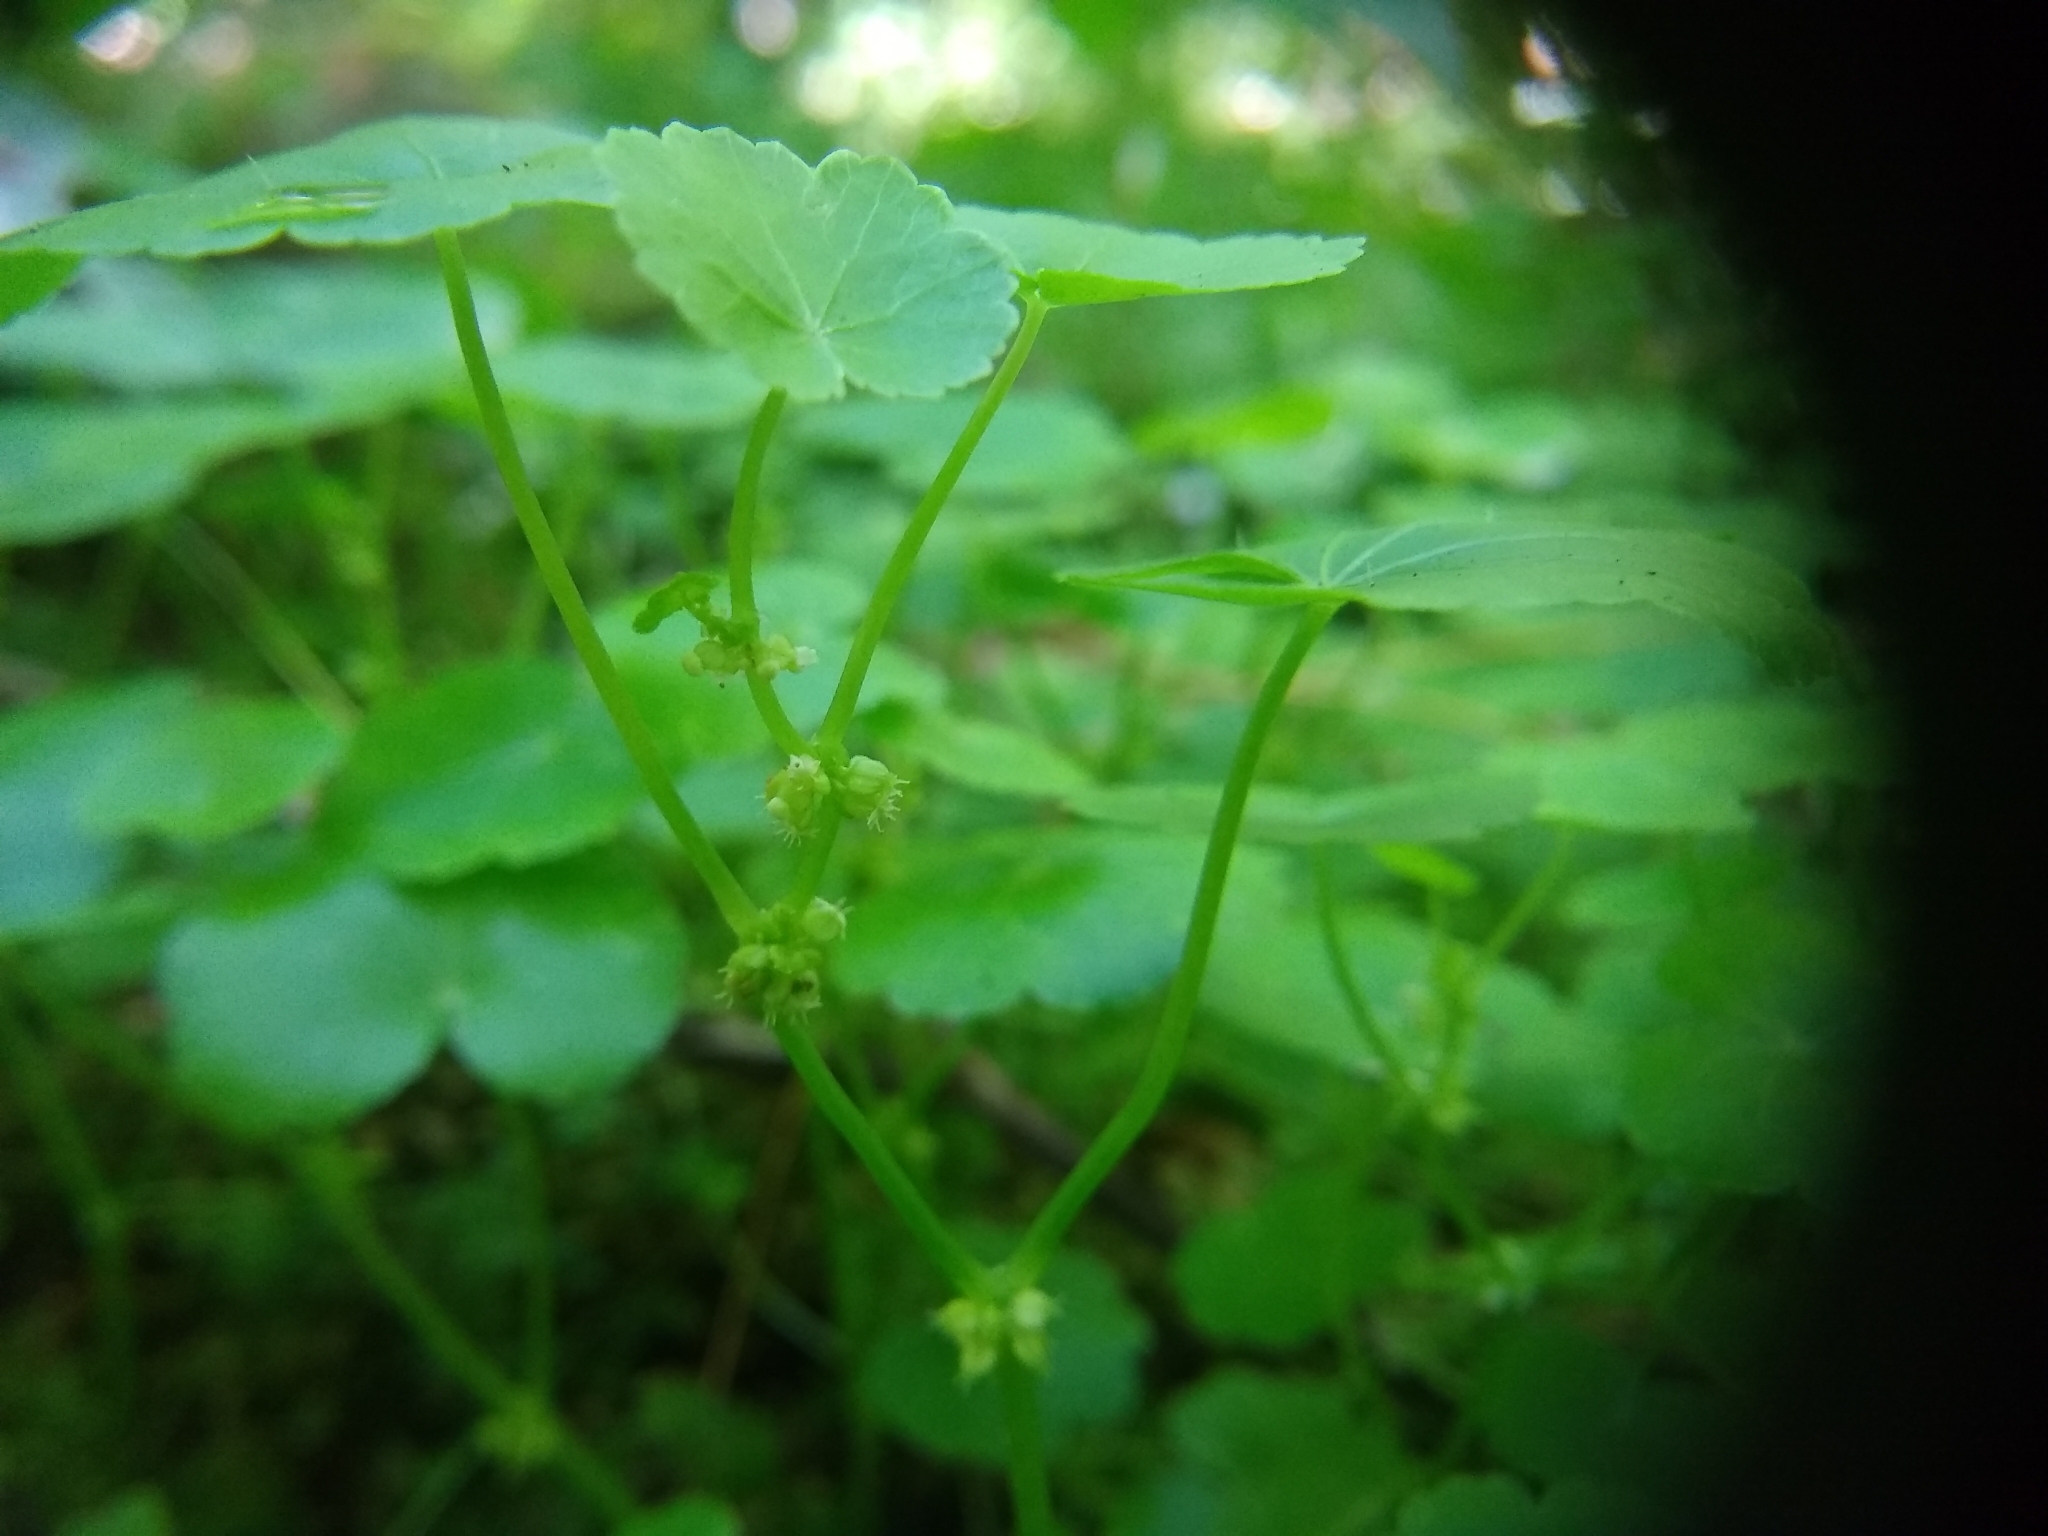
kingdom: Plantae
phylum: Tracheophyta
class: Magnoliopsida
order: Apiales
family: Araliaceae
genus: Hydrocotyle
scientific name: Hydrocotyle americana
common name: American water-pennywort
